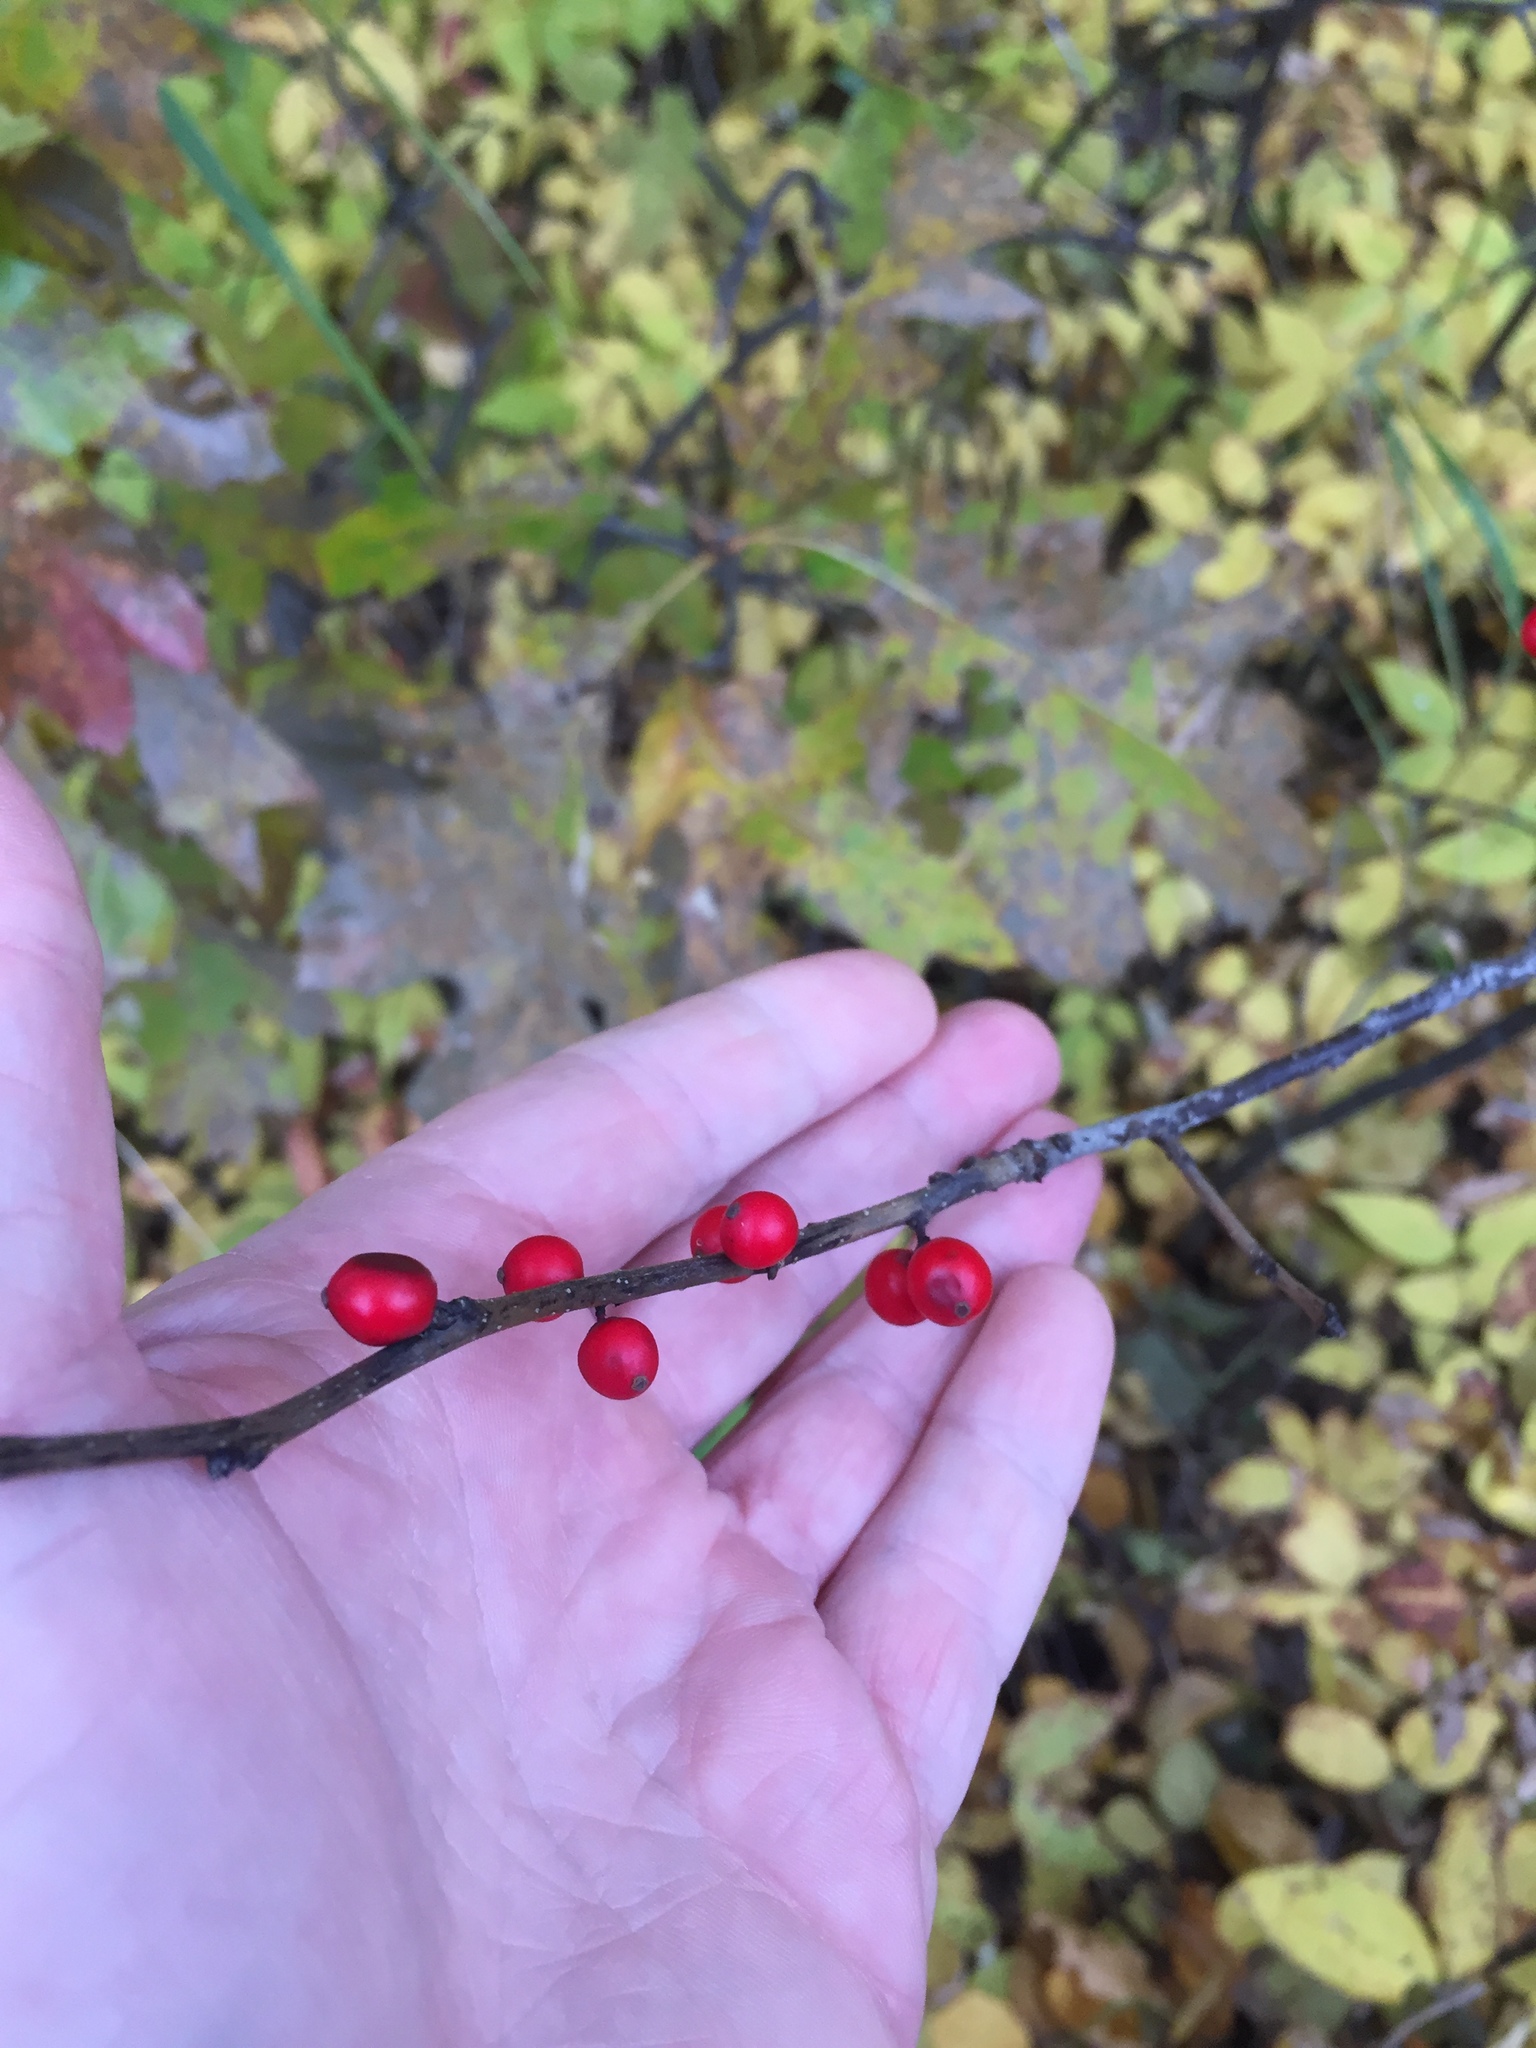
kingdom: Plantae
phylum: Tracheophyta
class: Magnoliopsida
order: Aquifoliales
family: Aquifoliaceae
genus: Ilex
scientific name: Ilex verticillata
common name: Virginia winterberry
